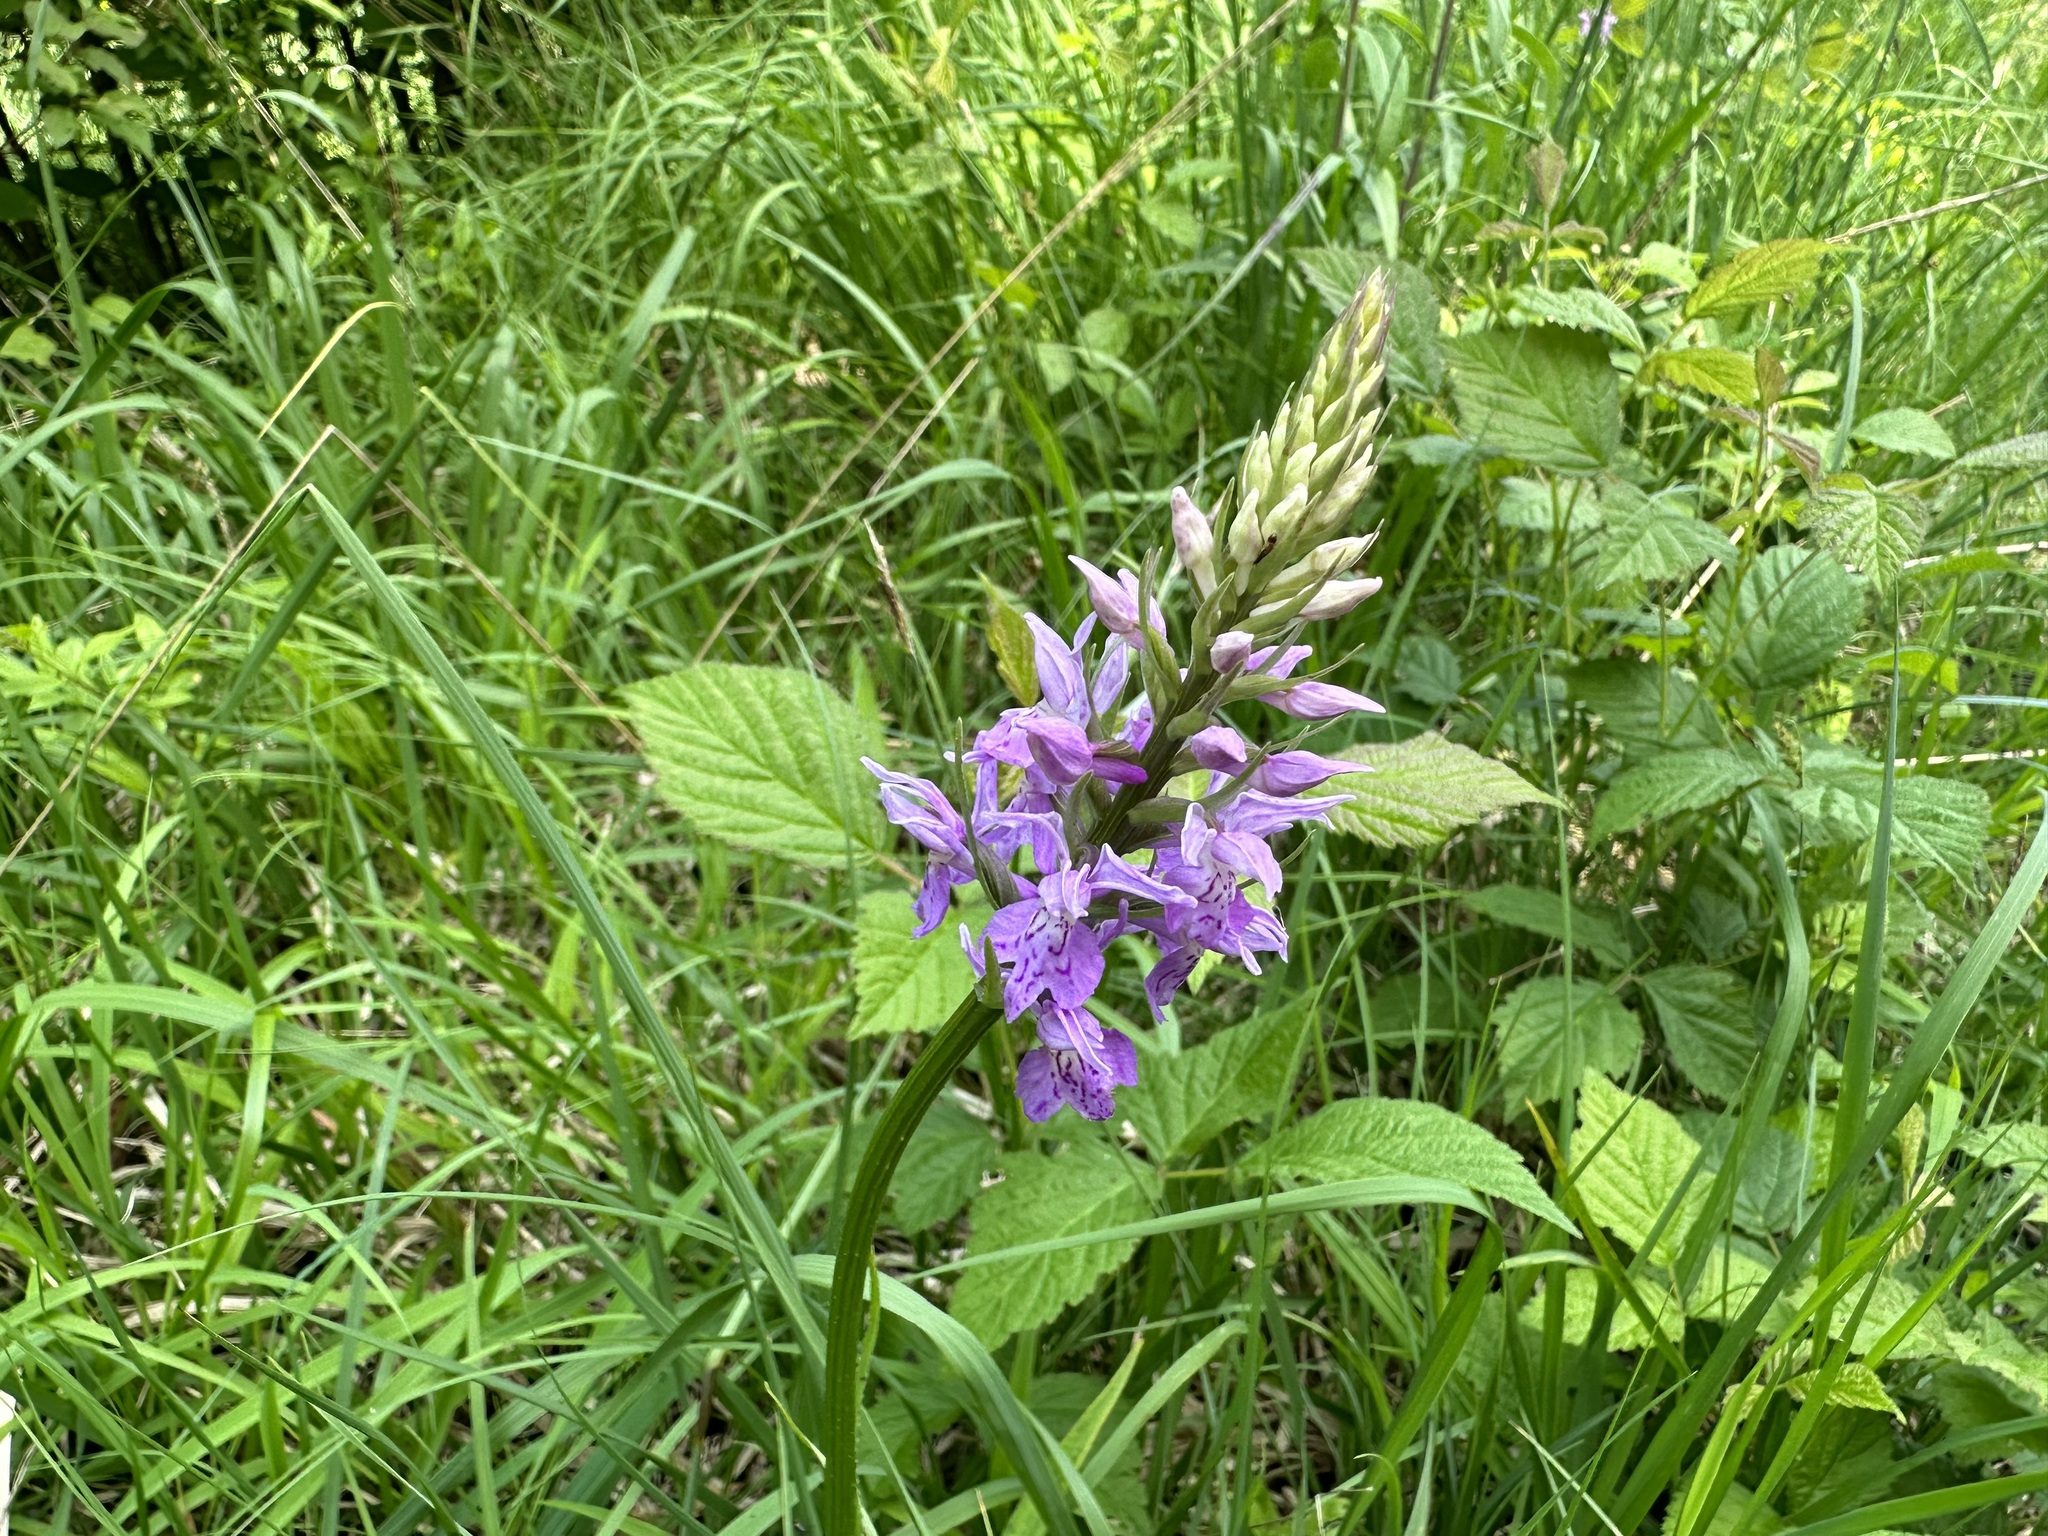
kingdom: Plantae
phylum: Tracheophyta
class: Liliopsida
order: Asparagales
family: Orchidaceae
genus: Dactylorhiza
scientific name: Dactylorhiza maculata
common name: Heath spotted-orchid
